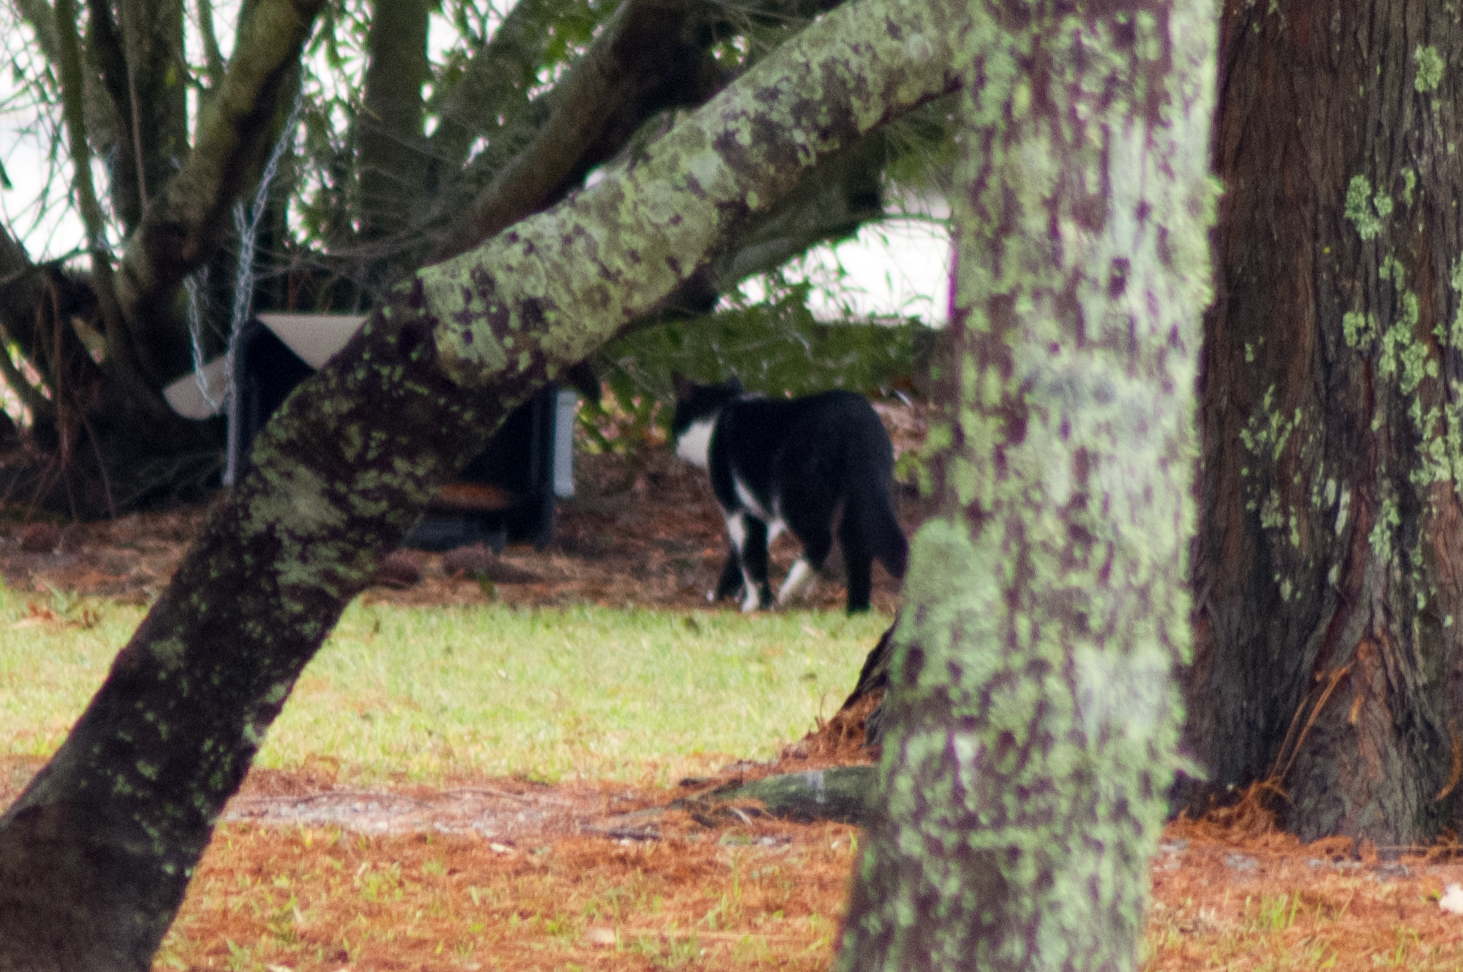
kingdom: Animalia
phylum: Chordata
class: Mammalia
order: Carnivora
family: Felidae
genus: Felis
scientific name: Felis catus
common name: Domestic cat
